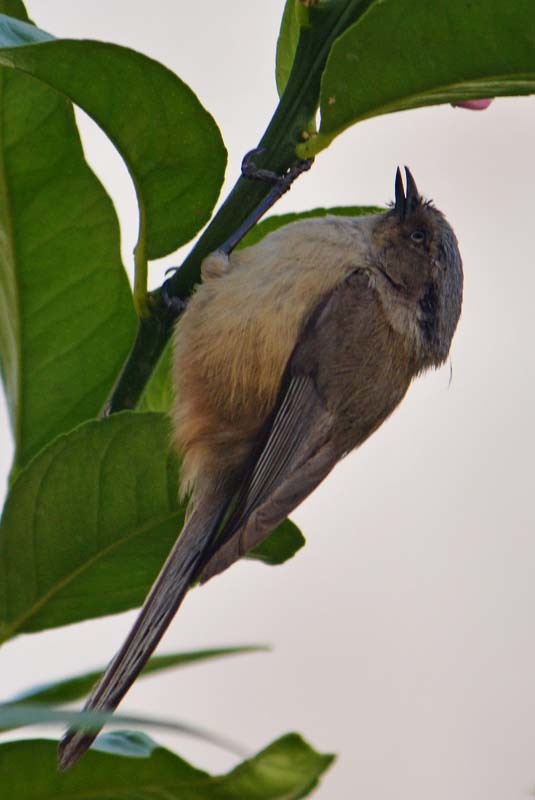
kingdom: Animalia
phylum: Chordata
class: Aves
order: Passeriformes
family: Aegithalidae
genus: Psaltriparus
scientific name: Psaltriparus minimus
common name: American bushtit
